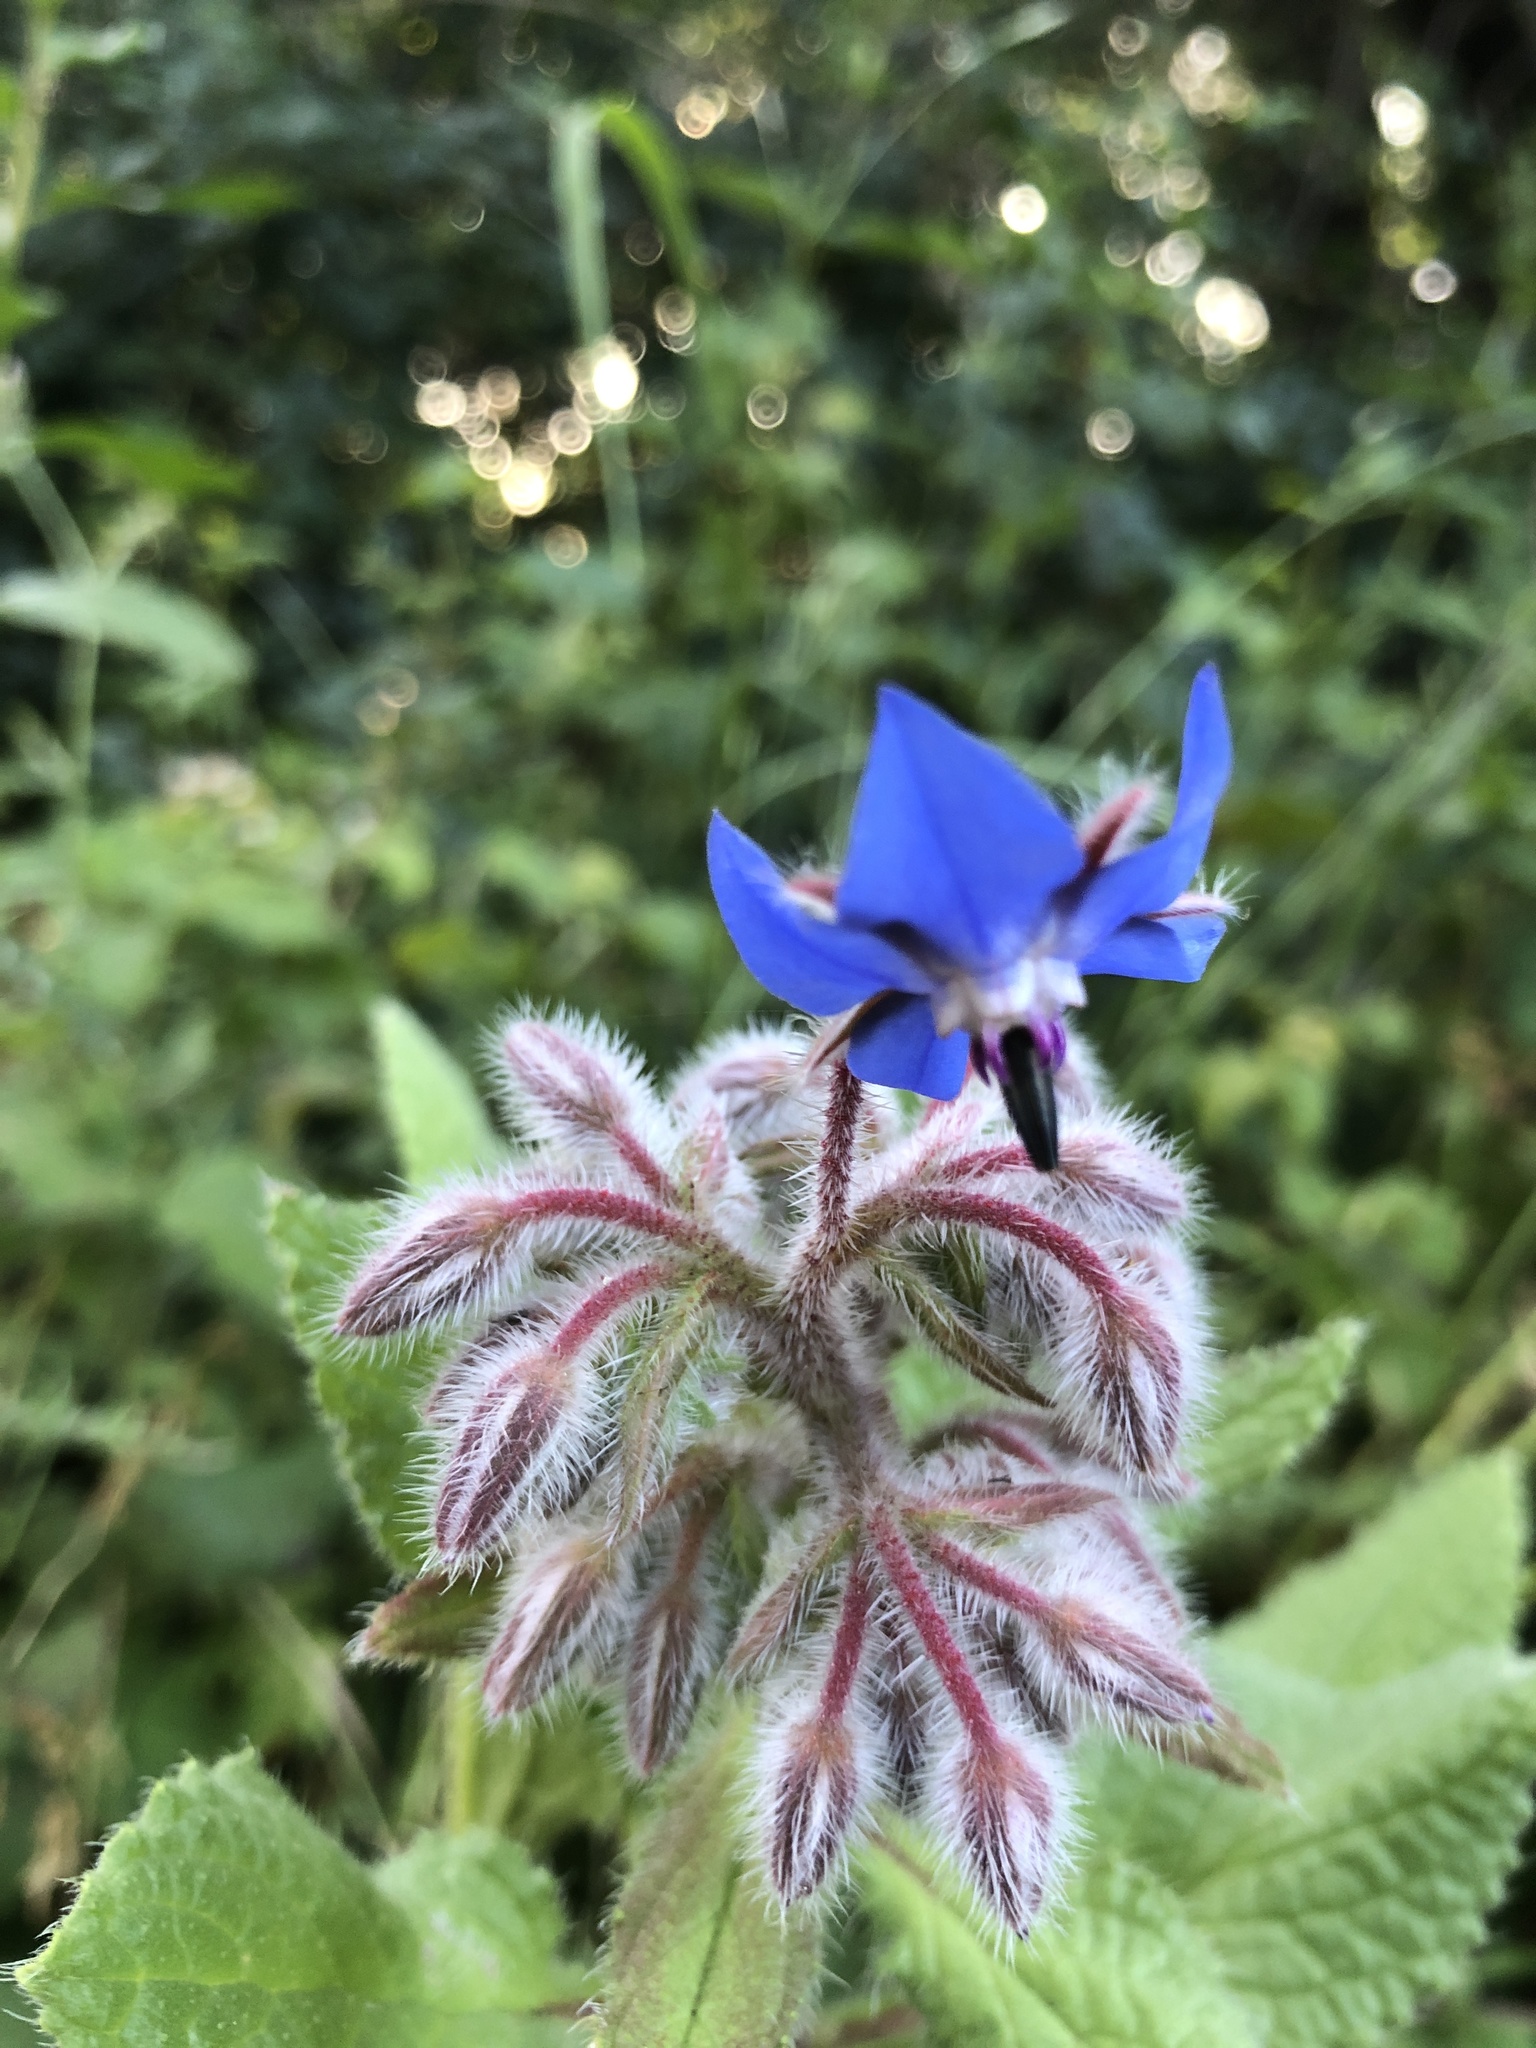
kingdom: Plantae
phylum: Tracheophyta
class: Magnoliopsida
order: Boraginales
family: Boraginaceae
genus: Borago
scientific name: Borago officinalis
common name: Borage
